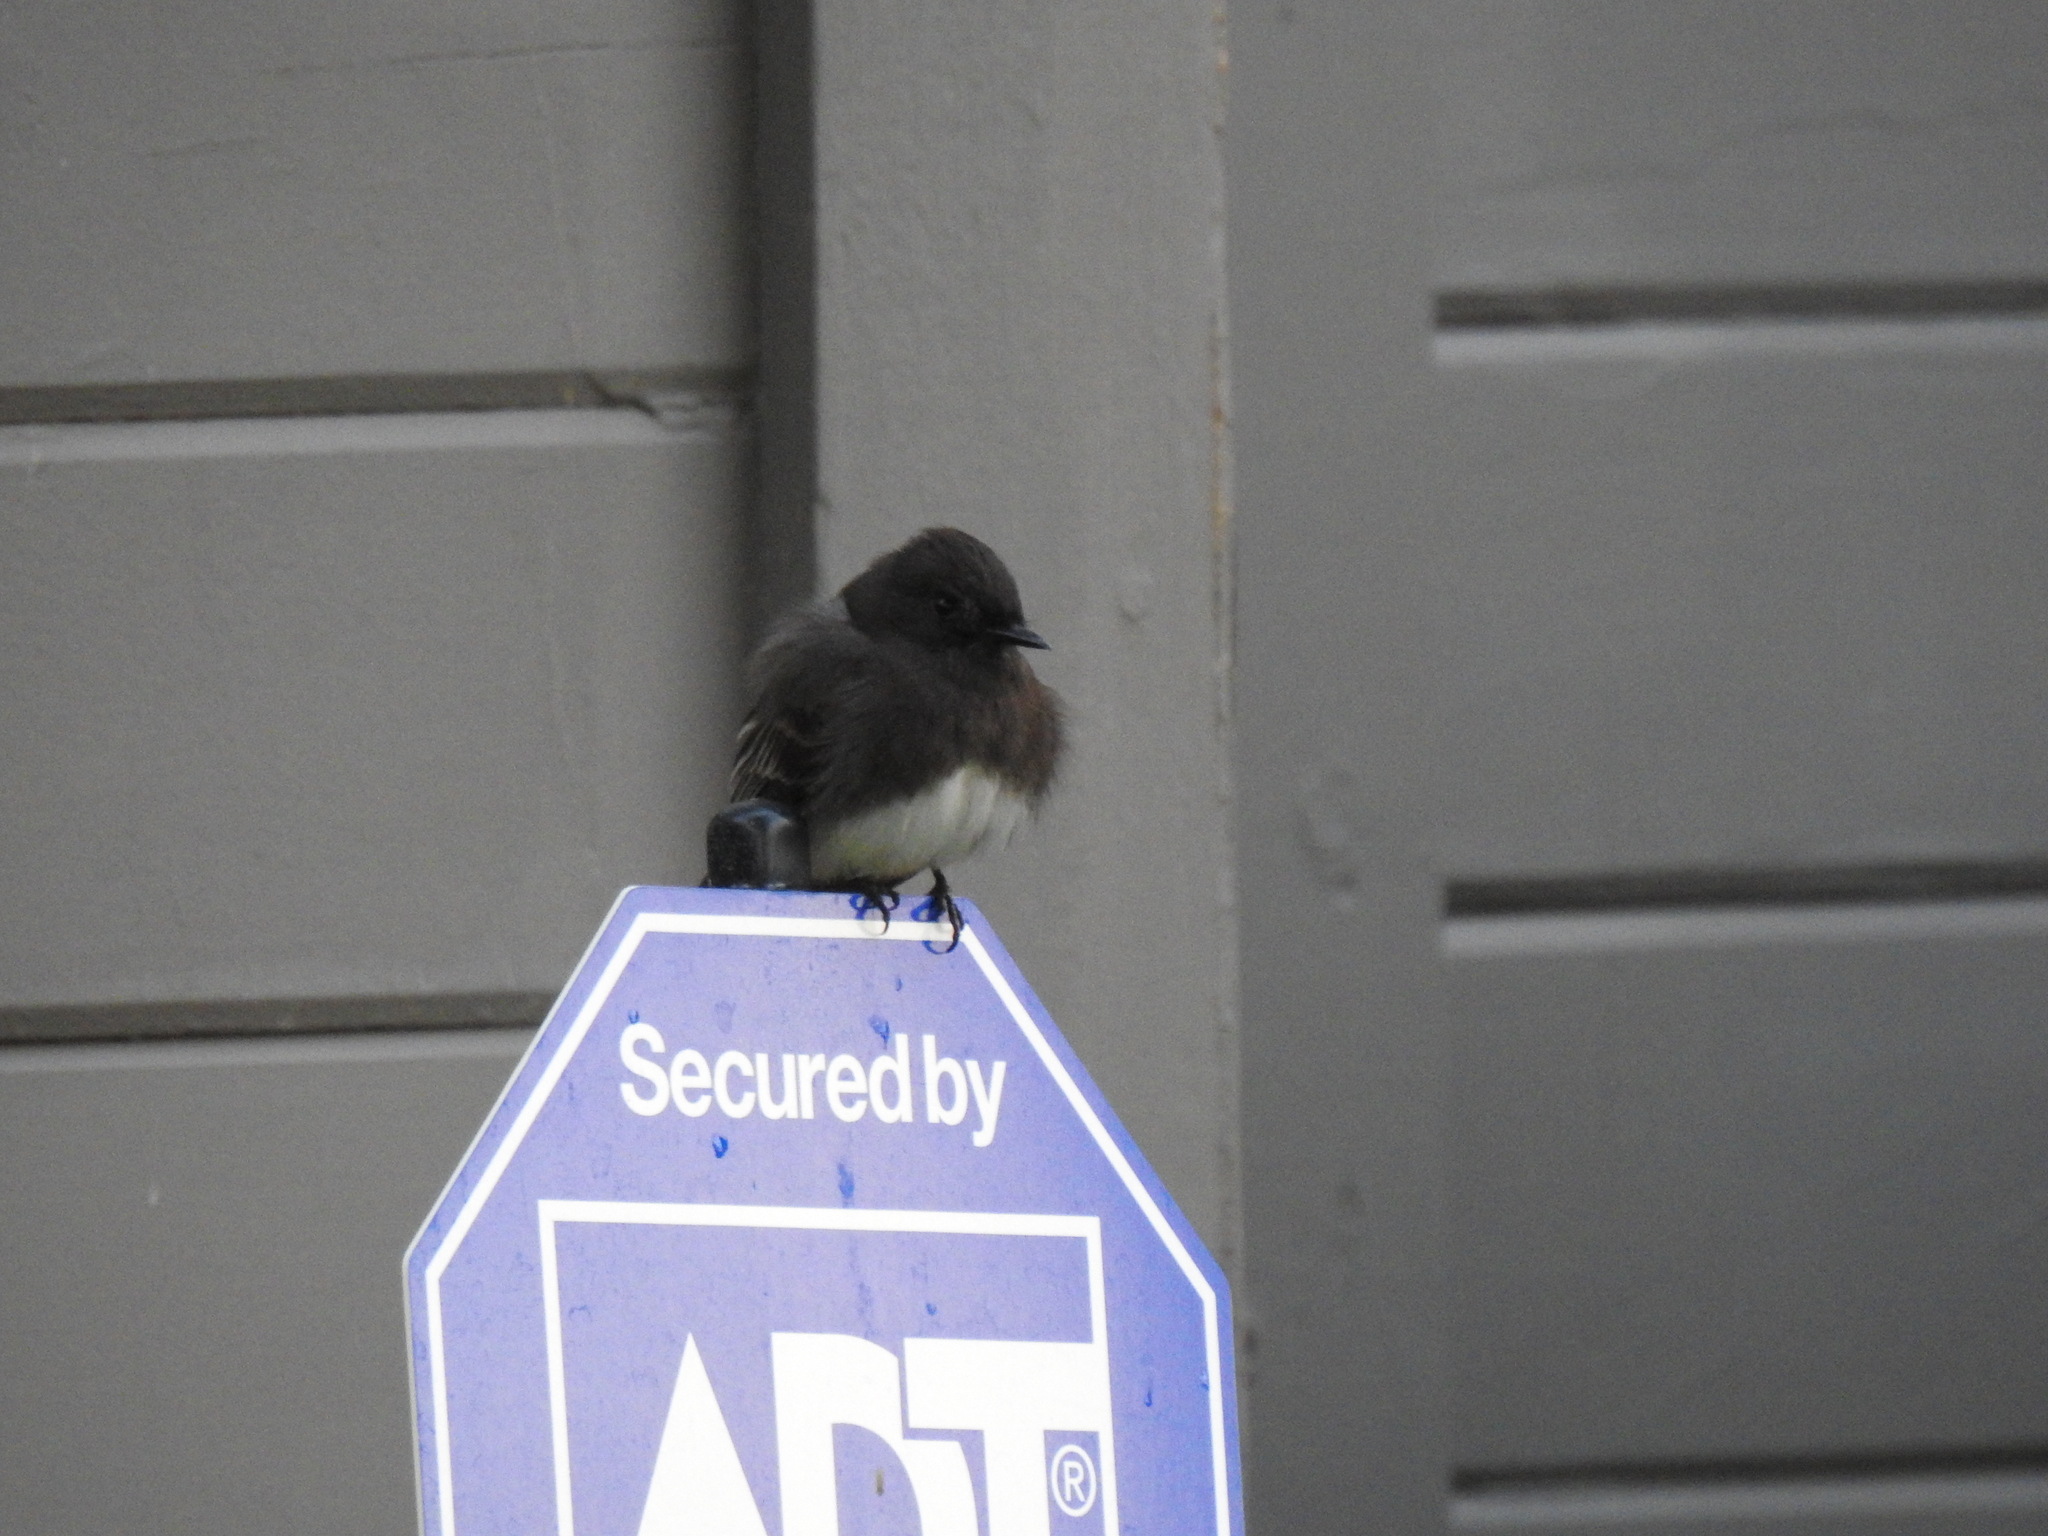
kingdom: Animalia
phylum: Chordata
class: Aves
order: Passeriformes
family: Tyrannidae
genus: Sayornis
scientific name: Sayornis nigricans
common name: Black phoebe
